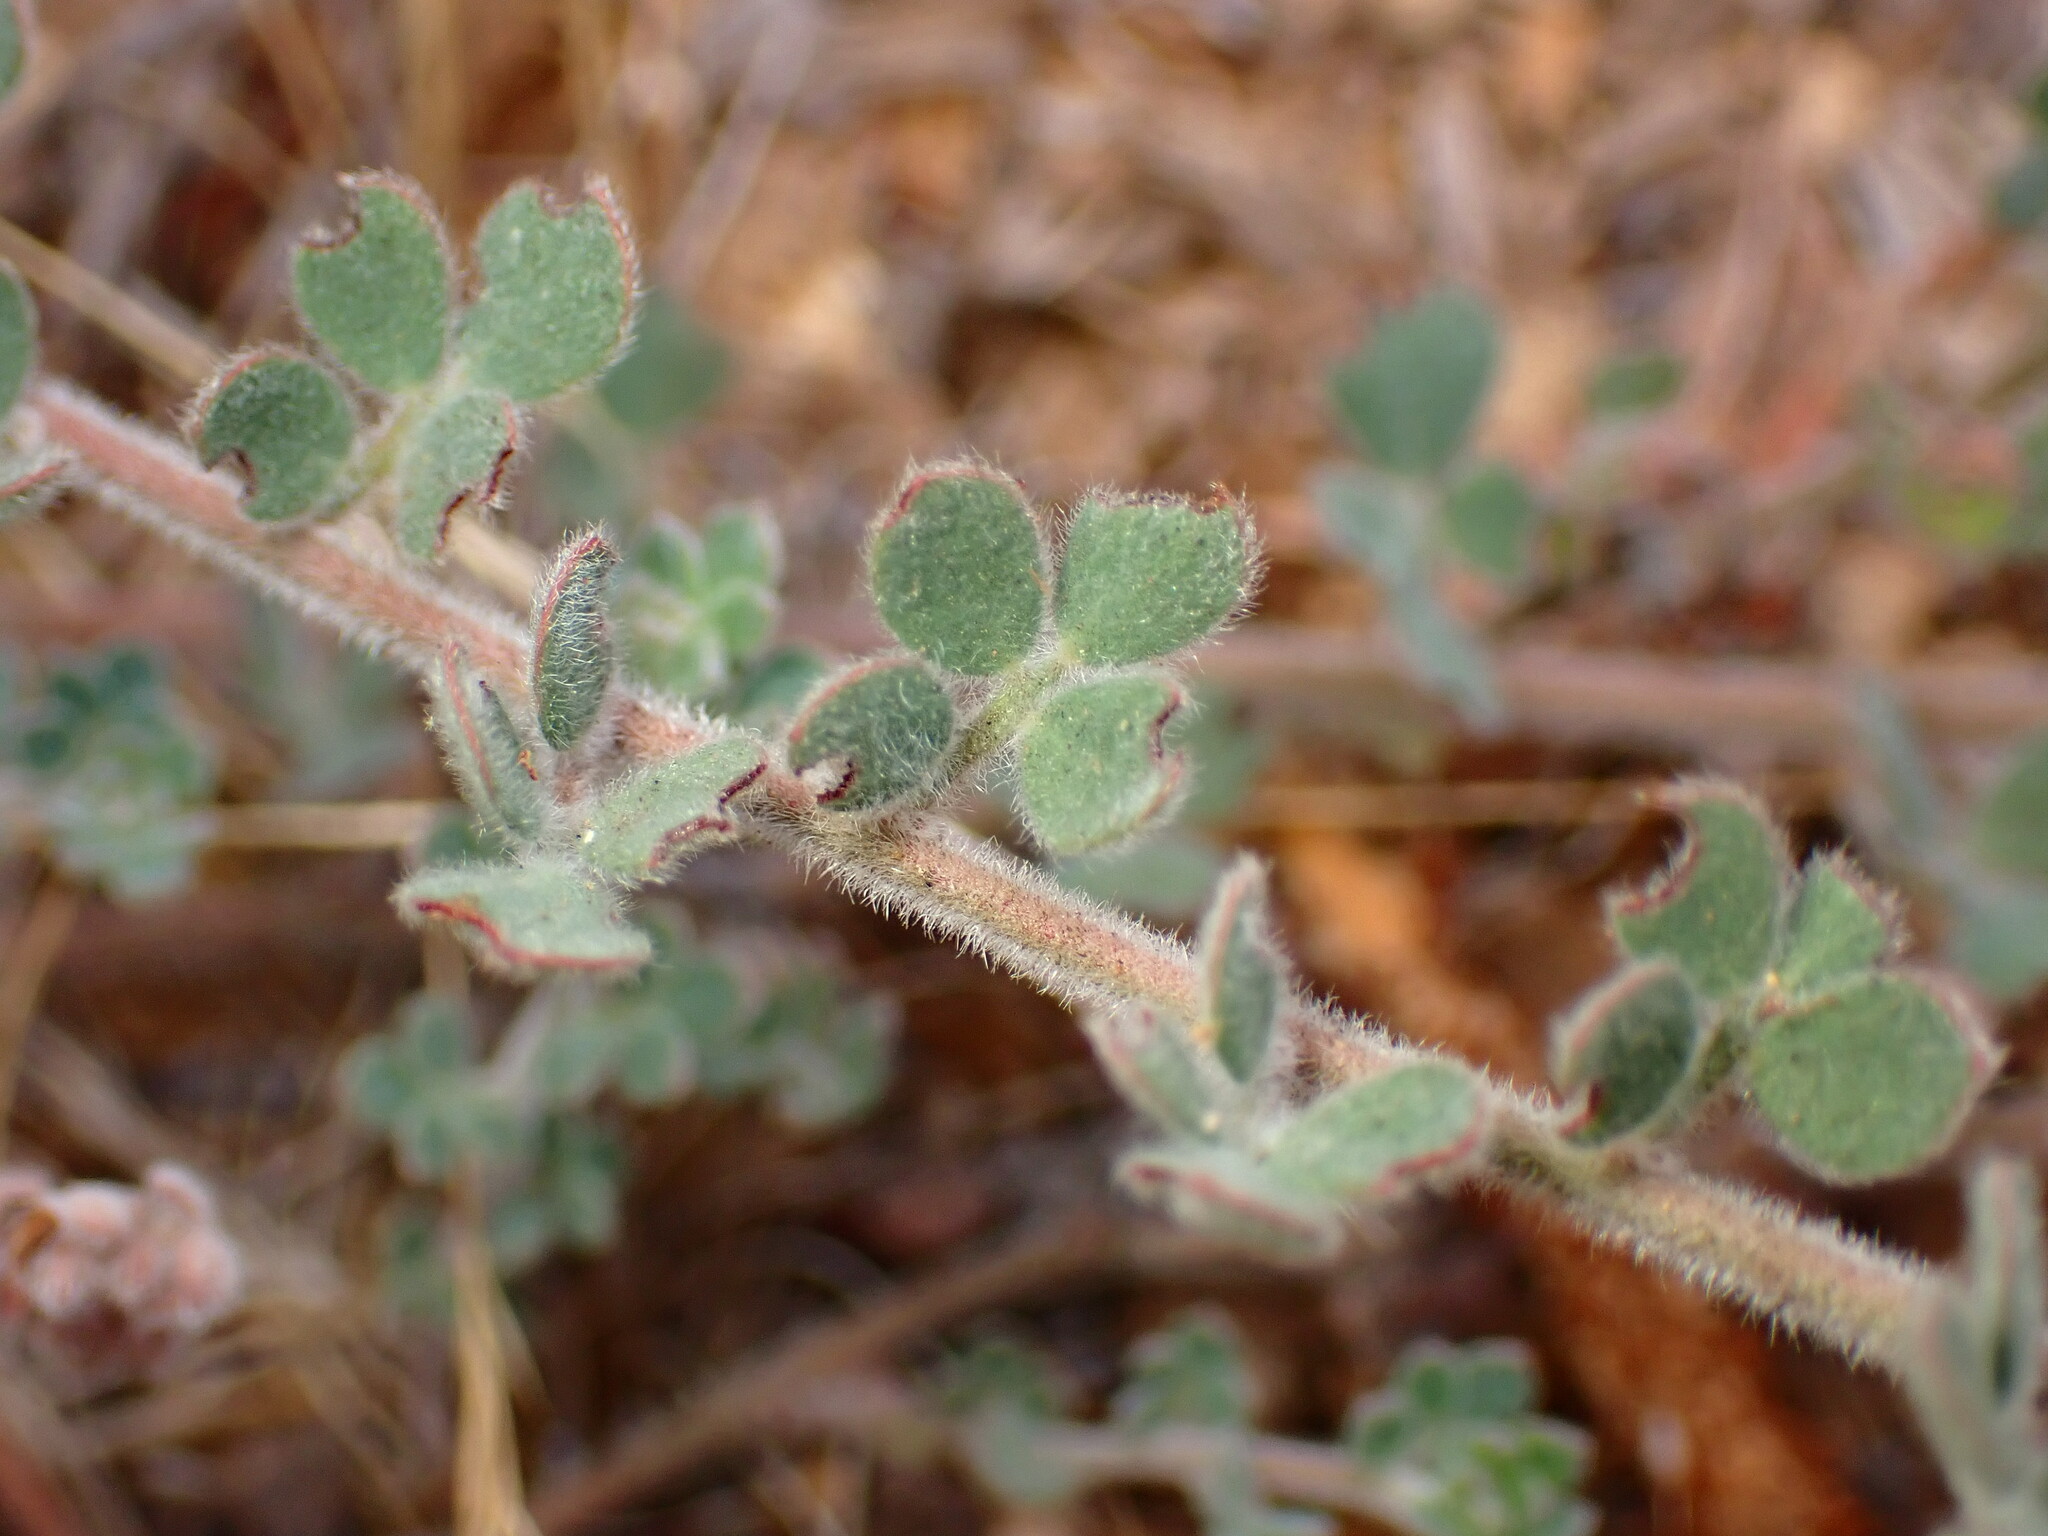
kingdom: Plantae
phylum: Tracheophyta
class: Magnoliopsida
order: Fabales
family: Fabaceae
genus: Acmispon
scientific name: Acmispon tomentosus
